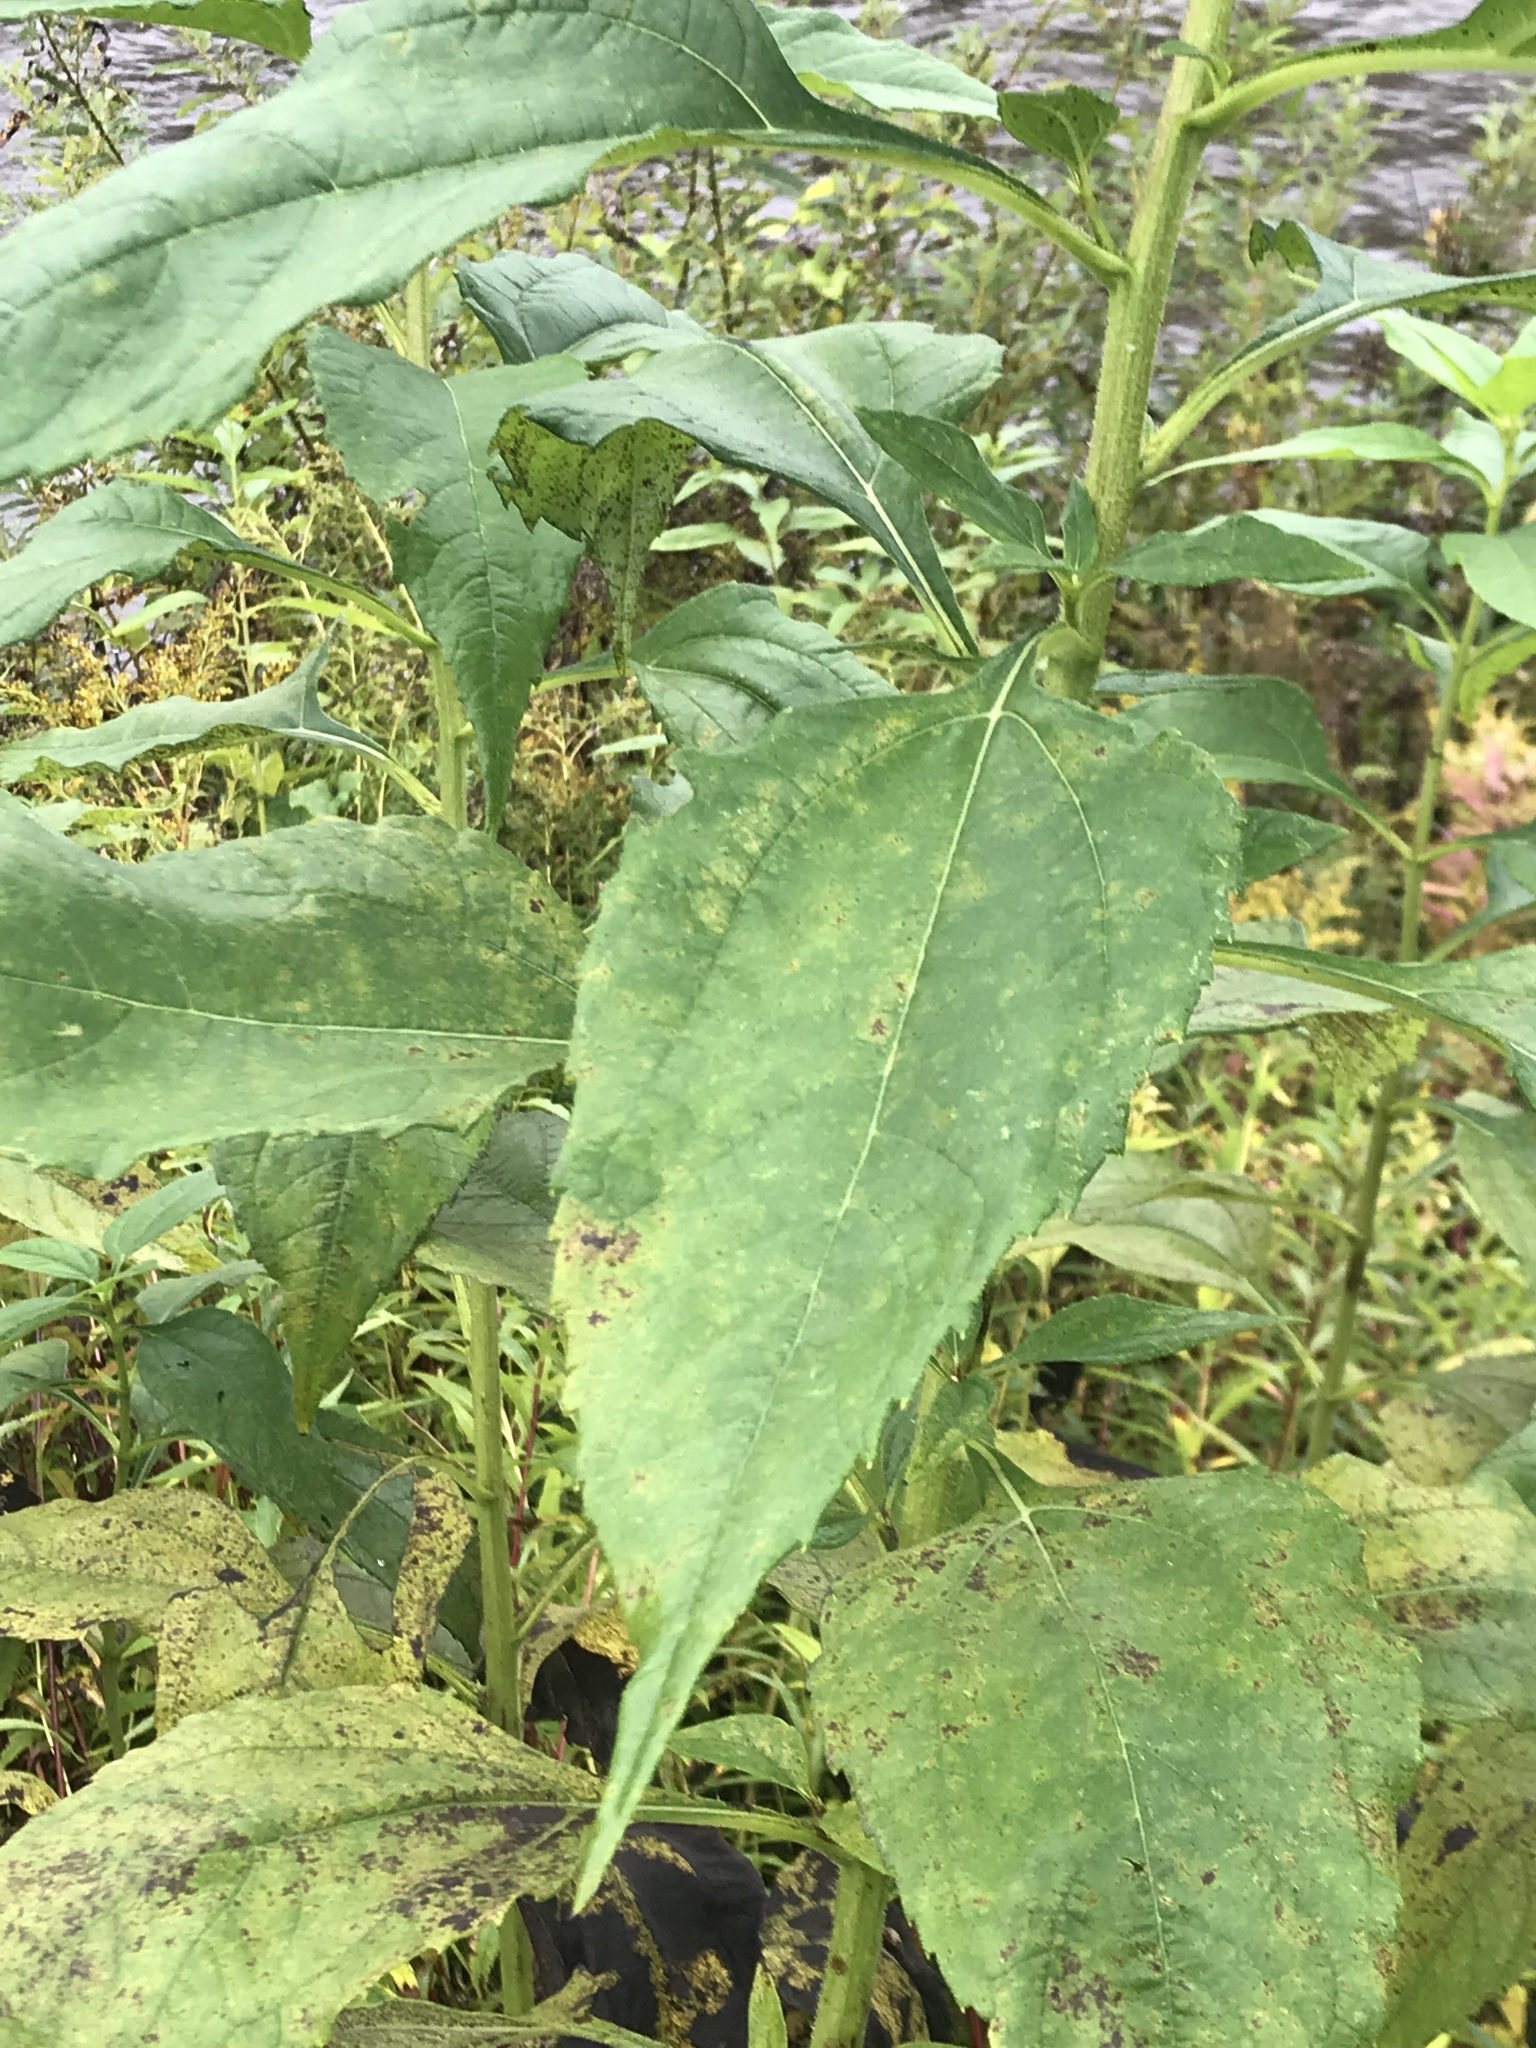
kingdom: Plantae
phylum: Tracheophyta
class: Magnoliopsida
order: Asterales
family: Asteraceae
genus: Helianthus
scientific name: Helianthus tuberosus
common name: Jerusalem artichoke
